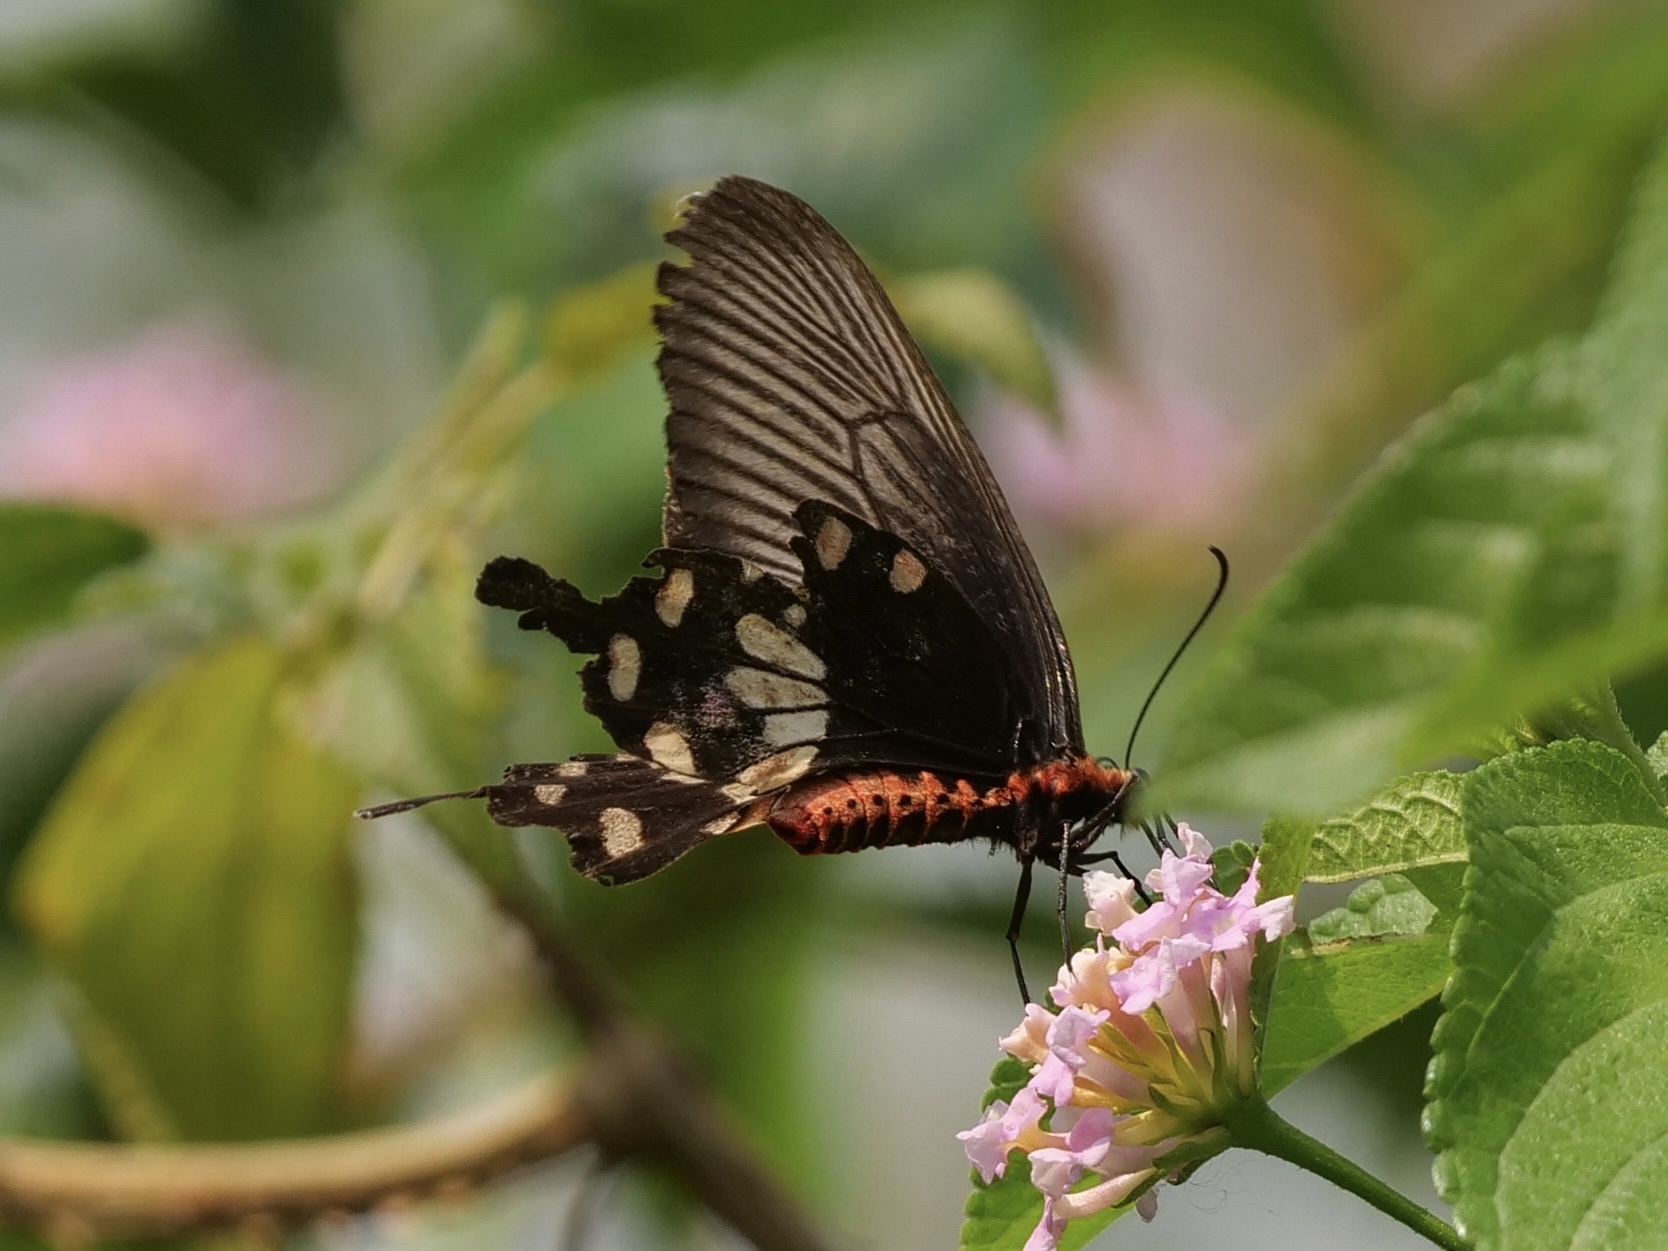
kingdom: Animalia
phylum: Arthropoda
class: Insecta
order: Lepidoptera
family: Papilionidae
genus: Pachliopta
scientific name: Pachliopta aristolochiae
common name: Common rose
